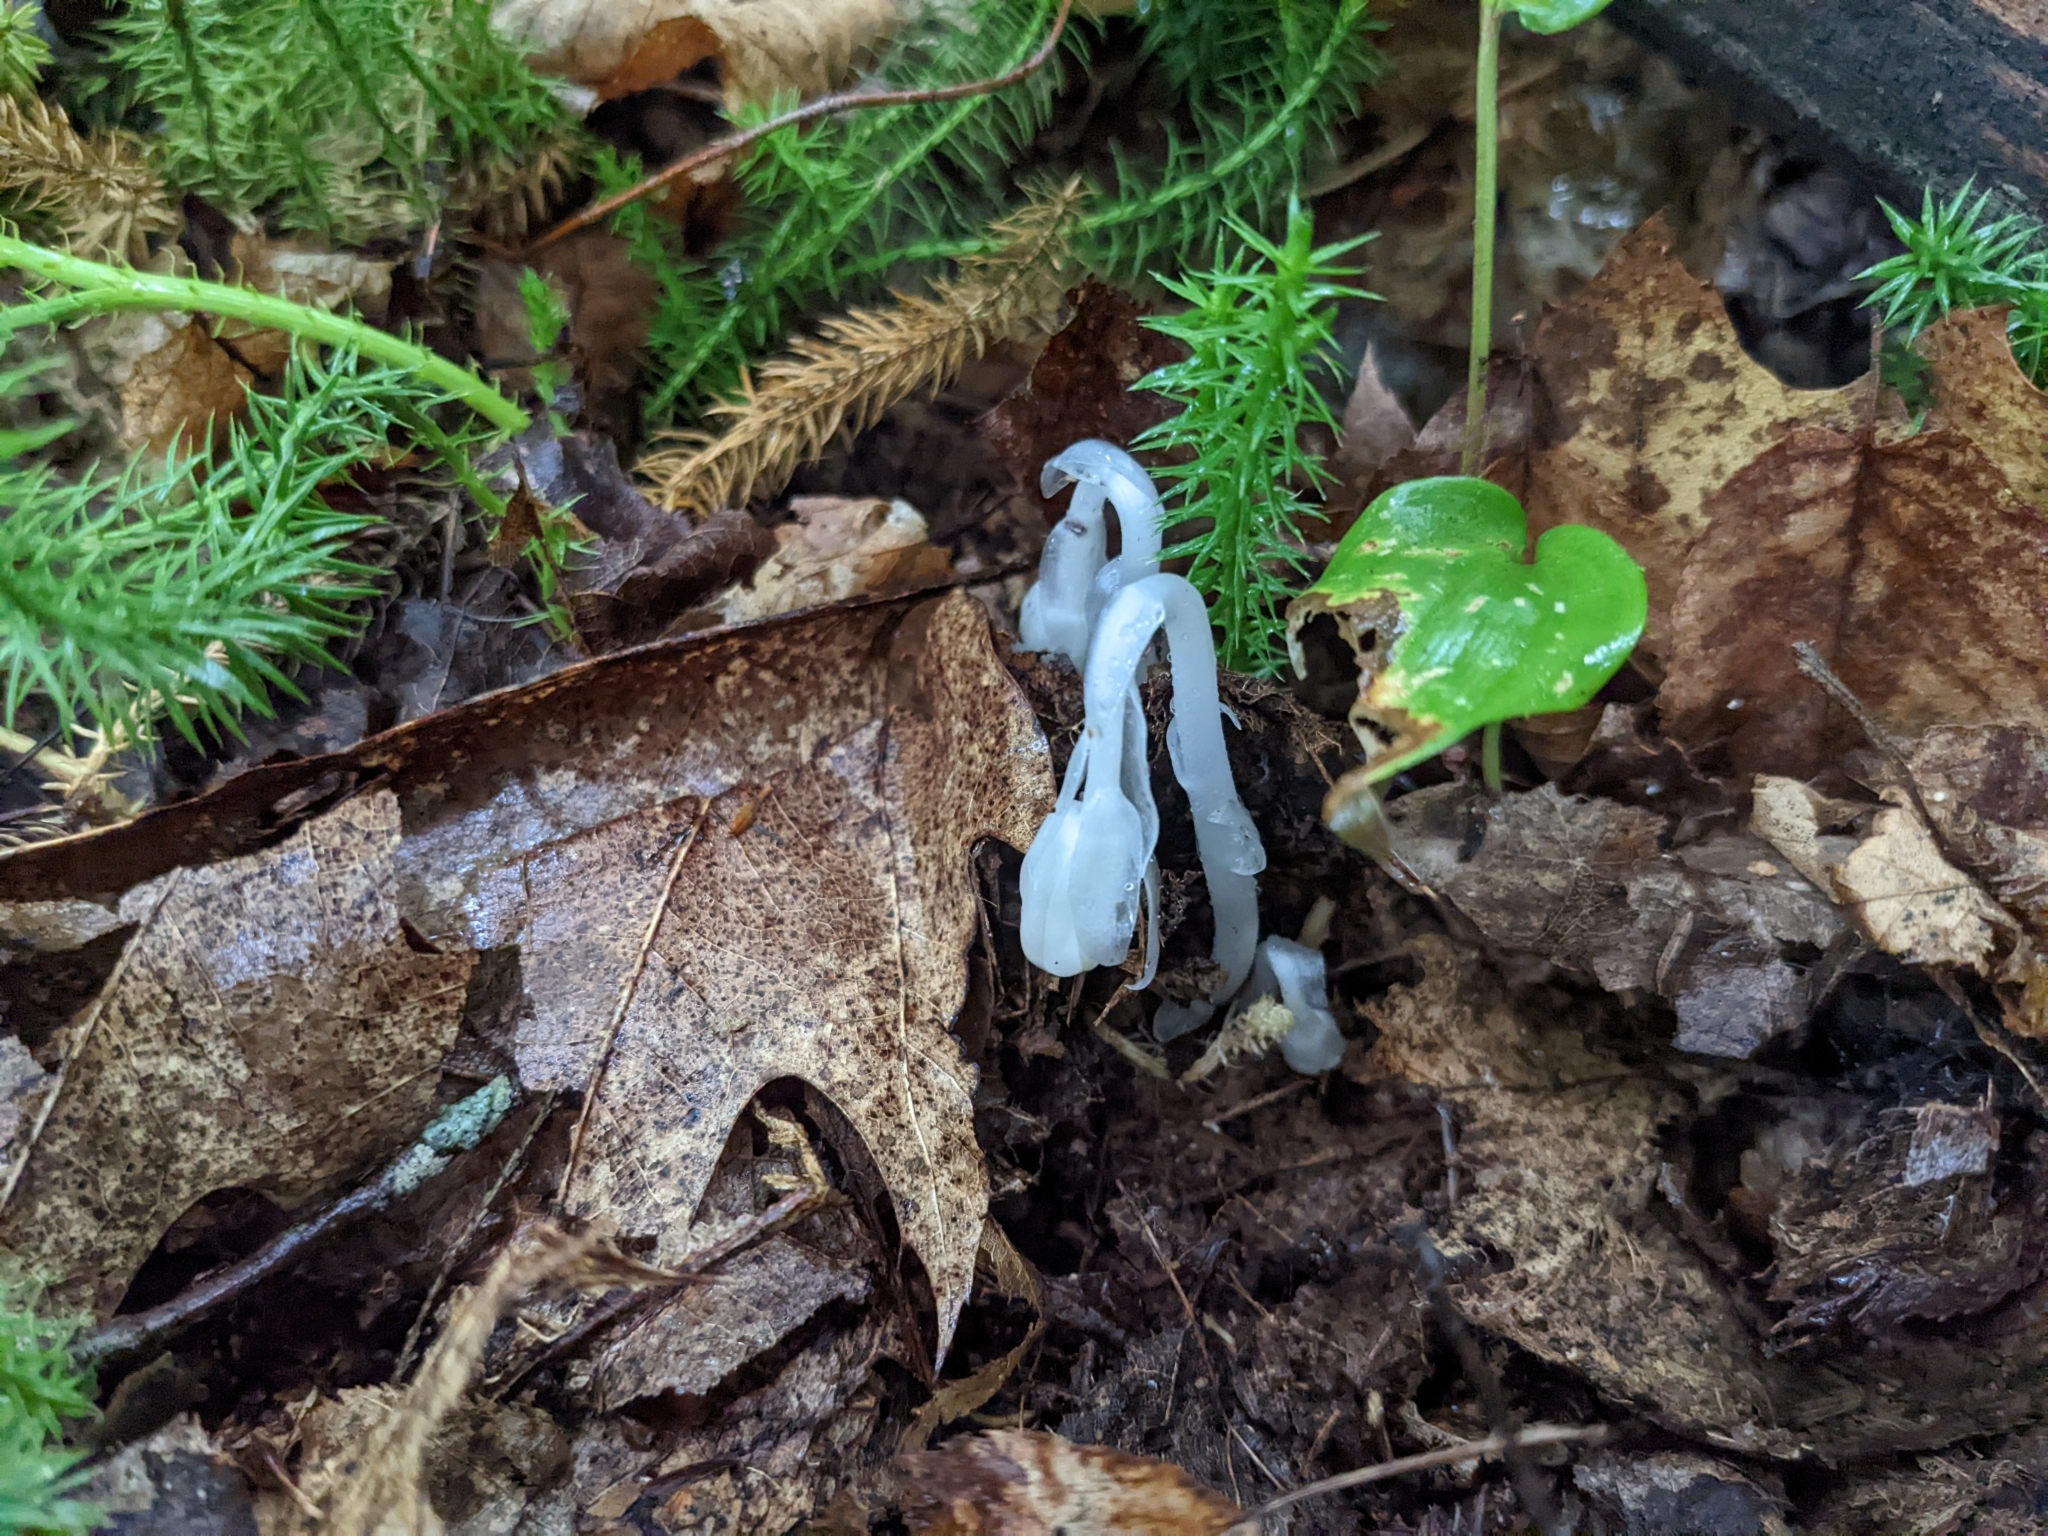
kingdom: Plantae
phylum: Tracheophyta
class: Magnoliopsida
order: Ericales
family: Ericaceae
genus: Monotropa
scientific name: Monotropa uniflora
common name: Convulsion root
